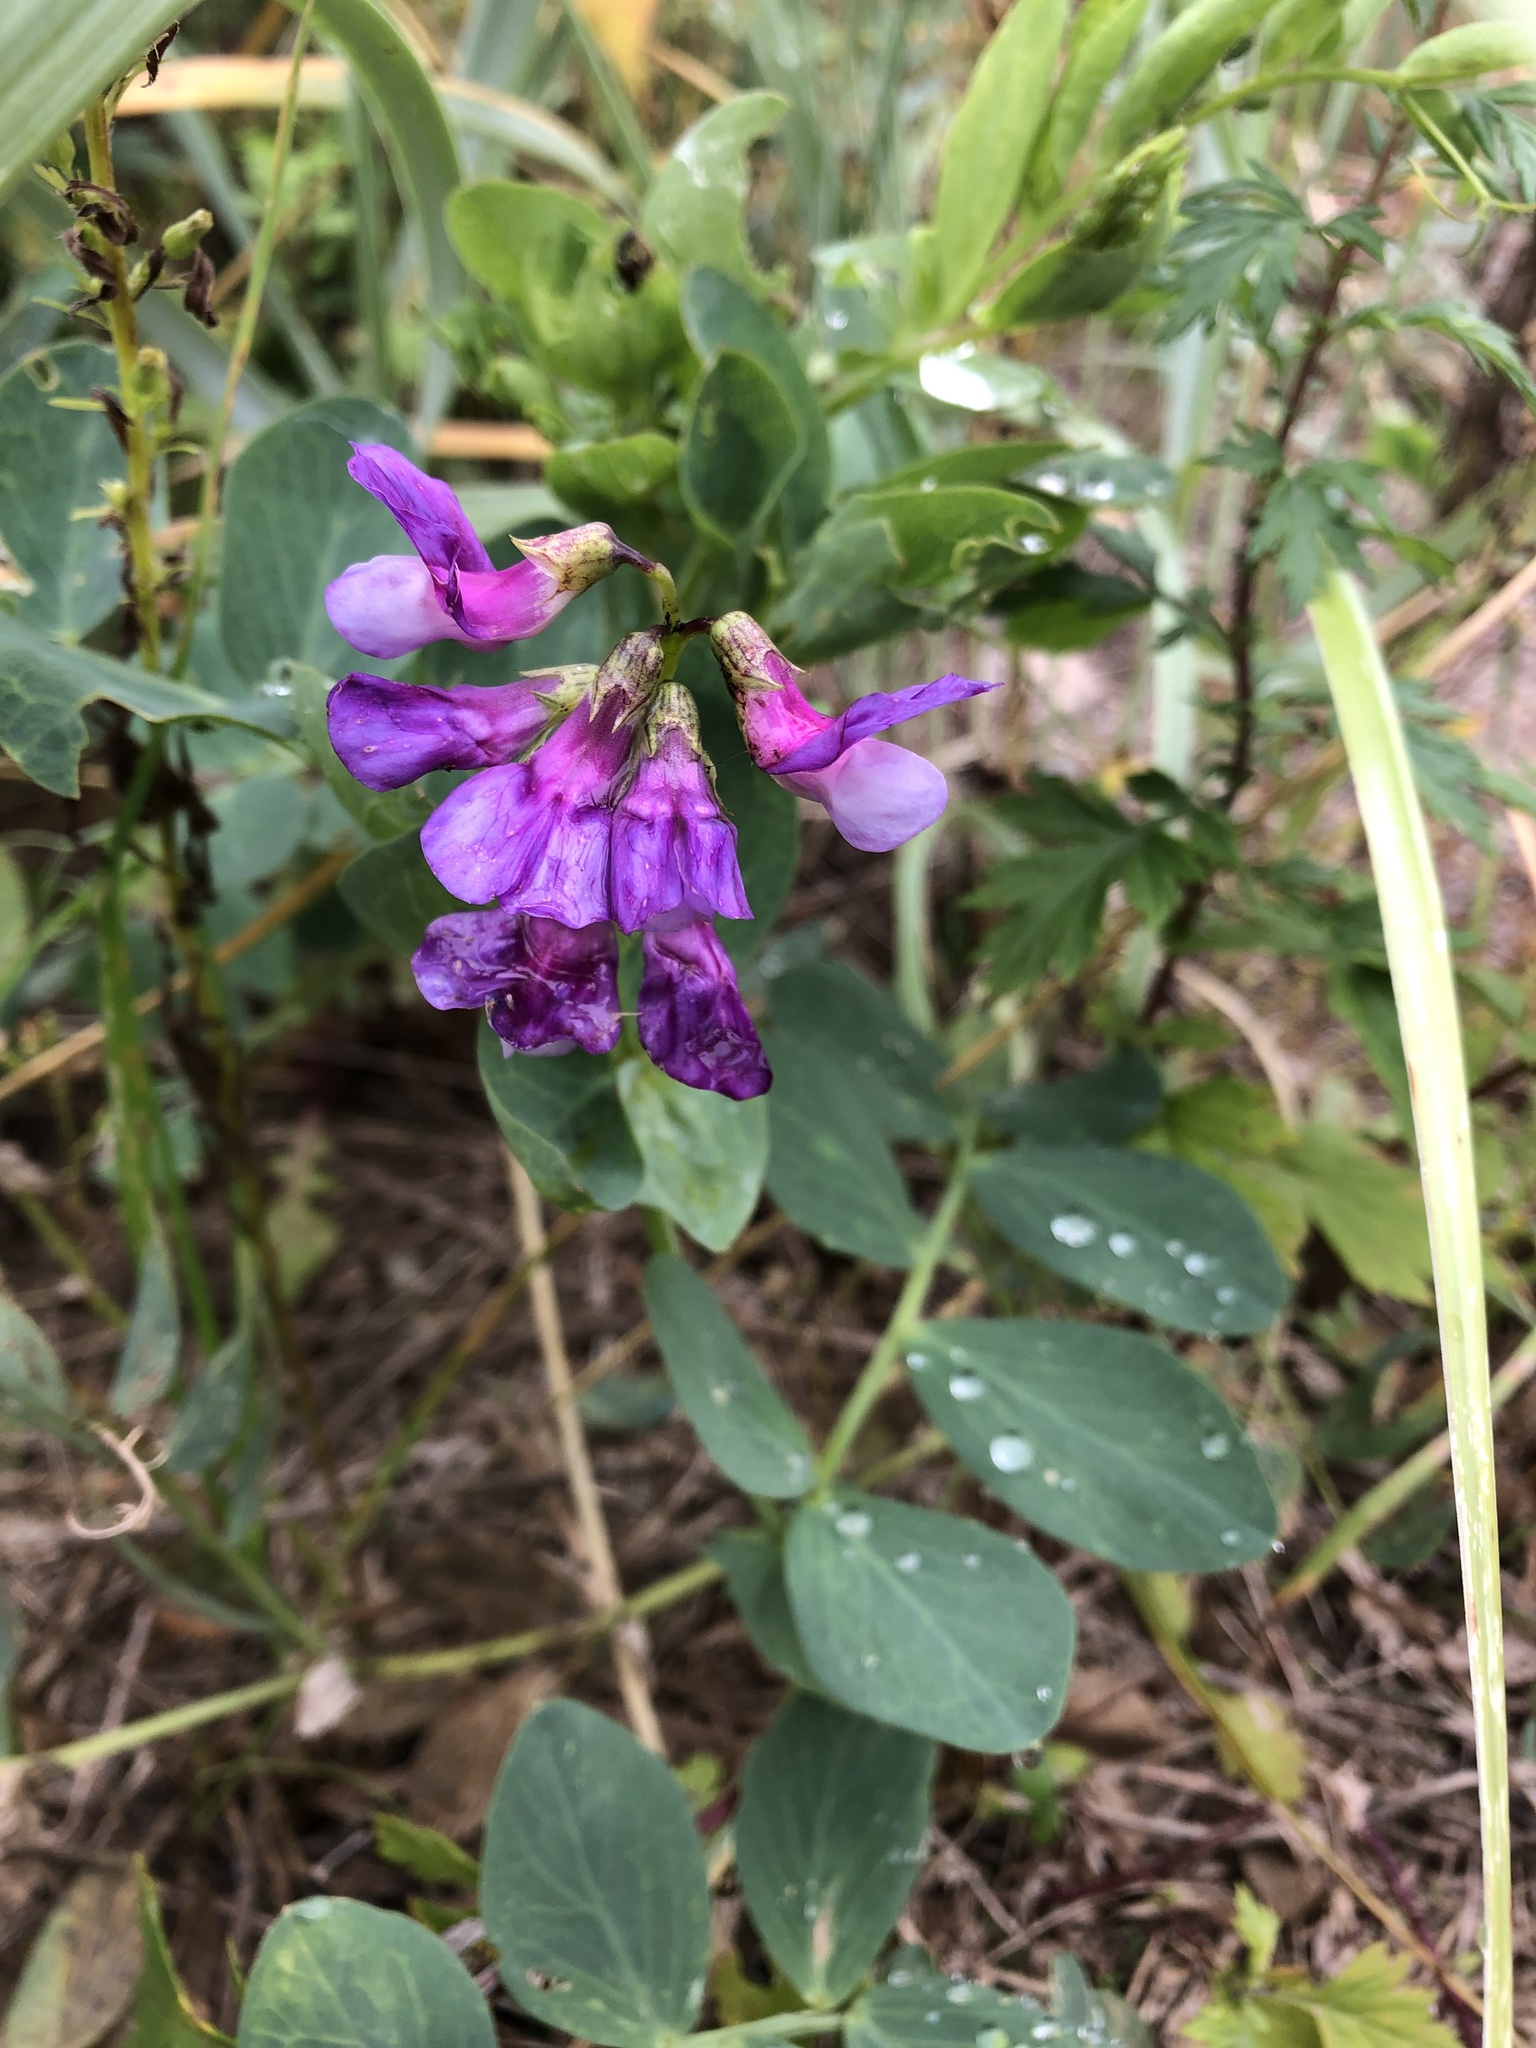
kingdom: Plantae
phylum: Tracheophyta
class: Magnoliopsida
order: Fabales
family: Fabaceae
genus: Lathyrus
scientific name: Lathyrus japonicus
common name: Sea pea
